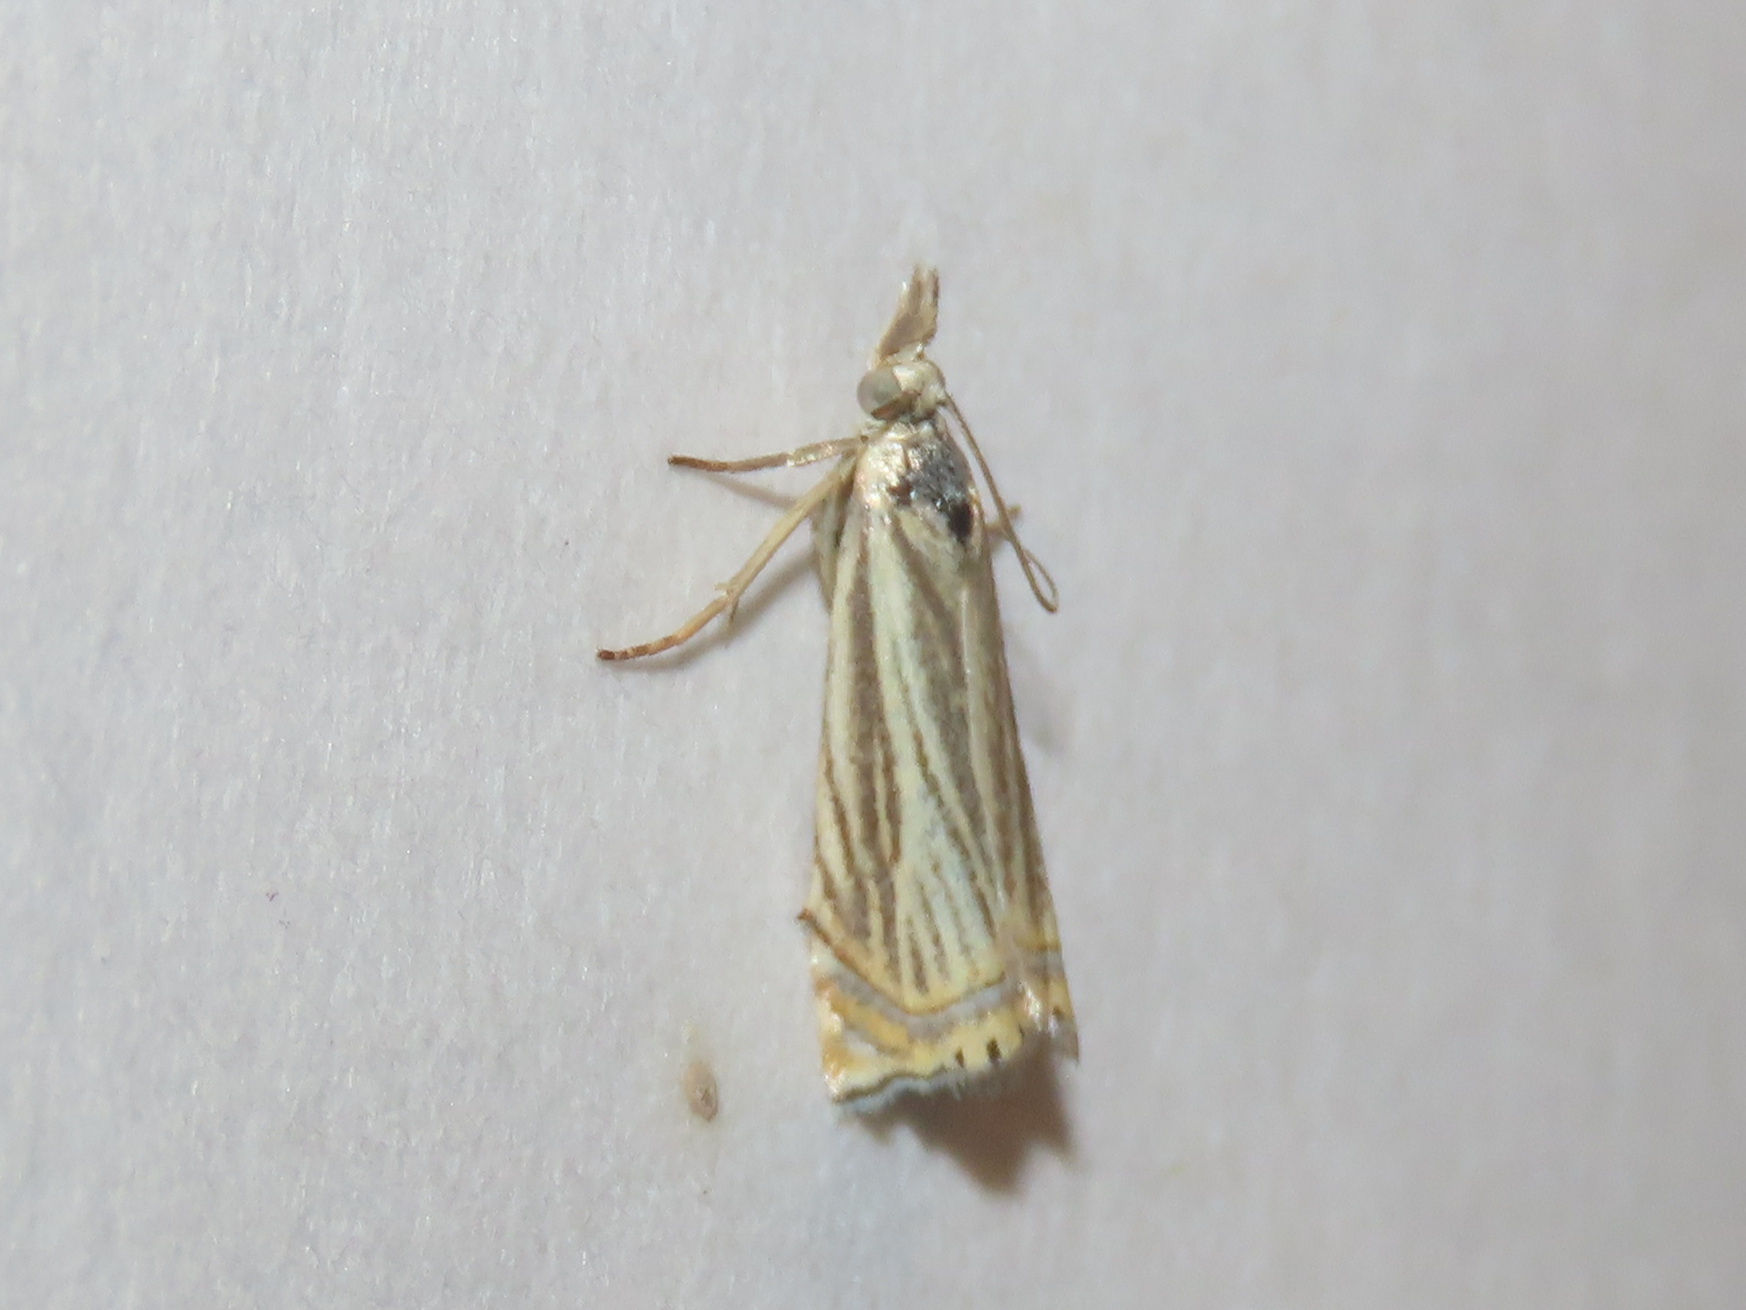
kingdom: Animalia
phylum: Arthropoda
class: Insecta
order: Lepidoptera
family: Crambidae
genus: Chrysoteuchia
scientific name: Chrysoteuchia topiarius
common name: Topiary grass-veneer
